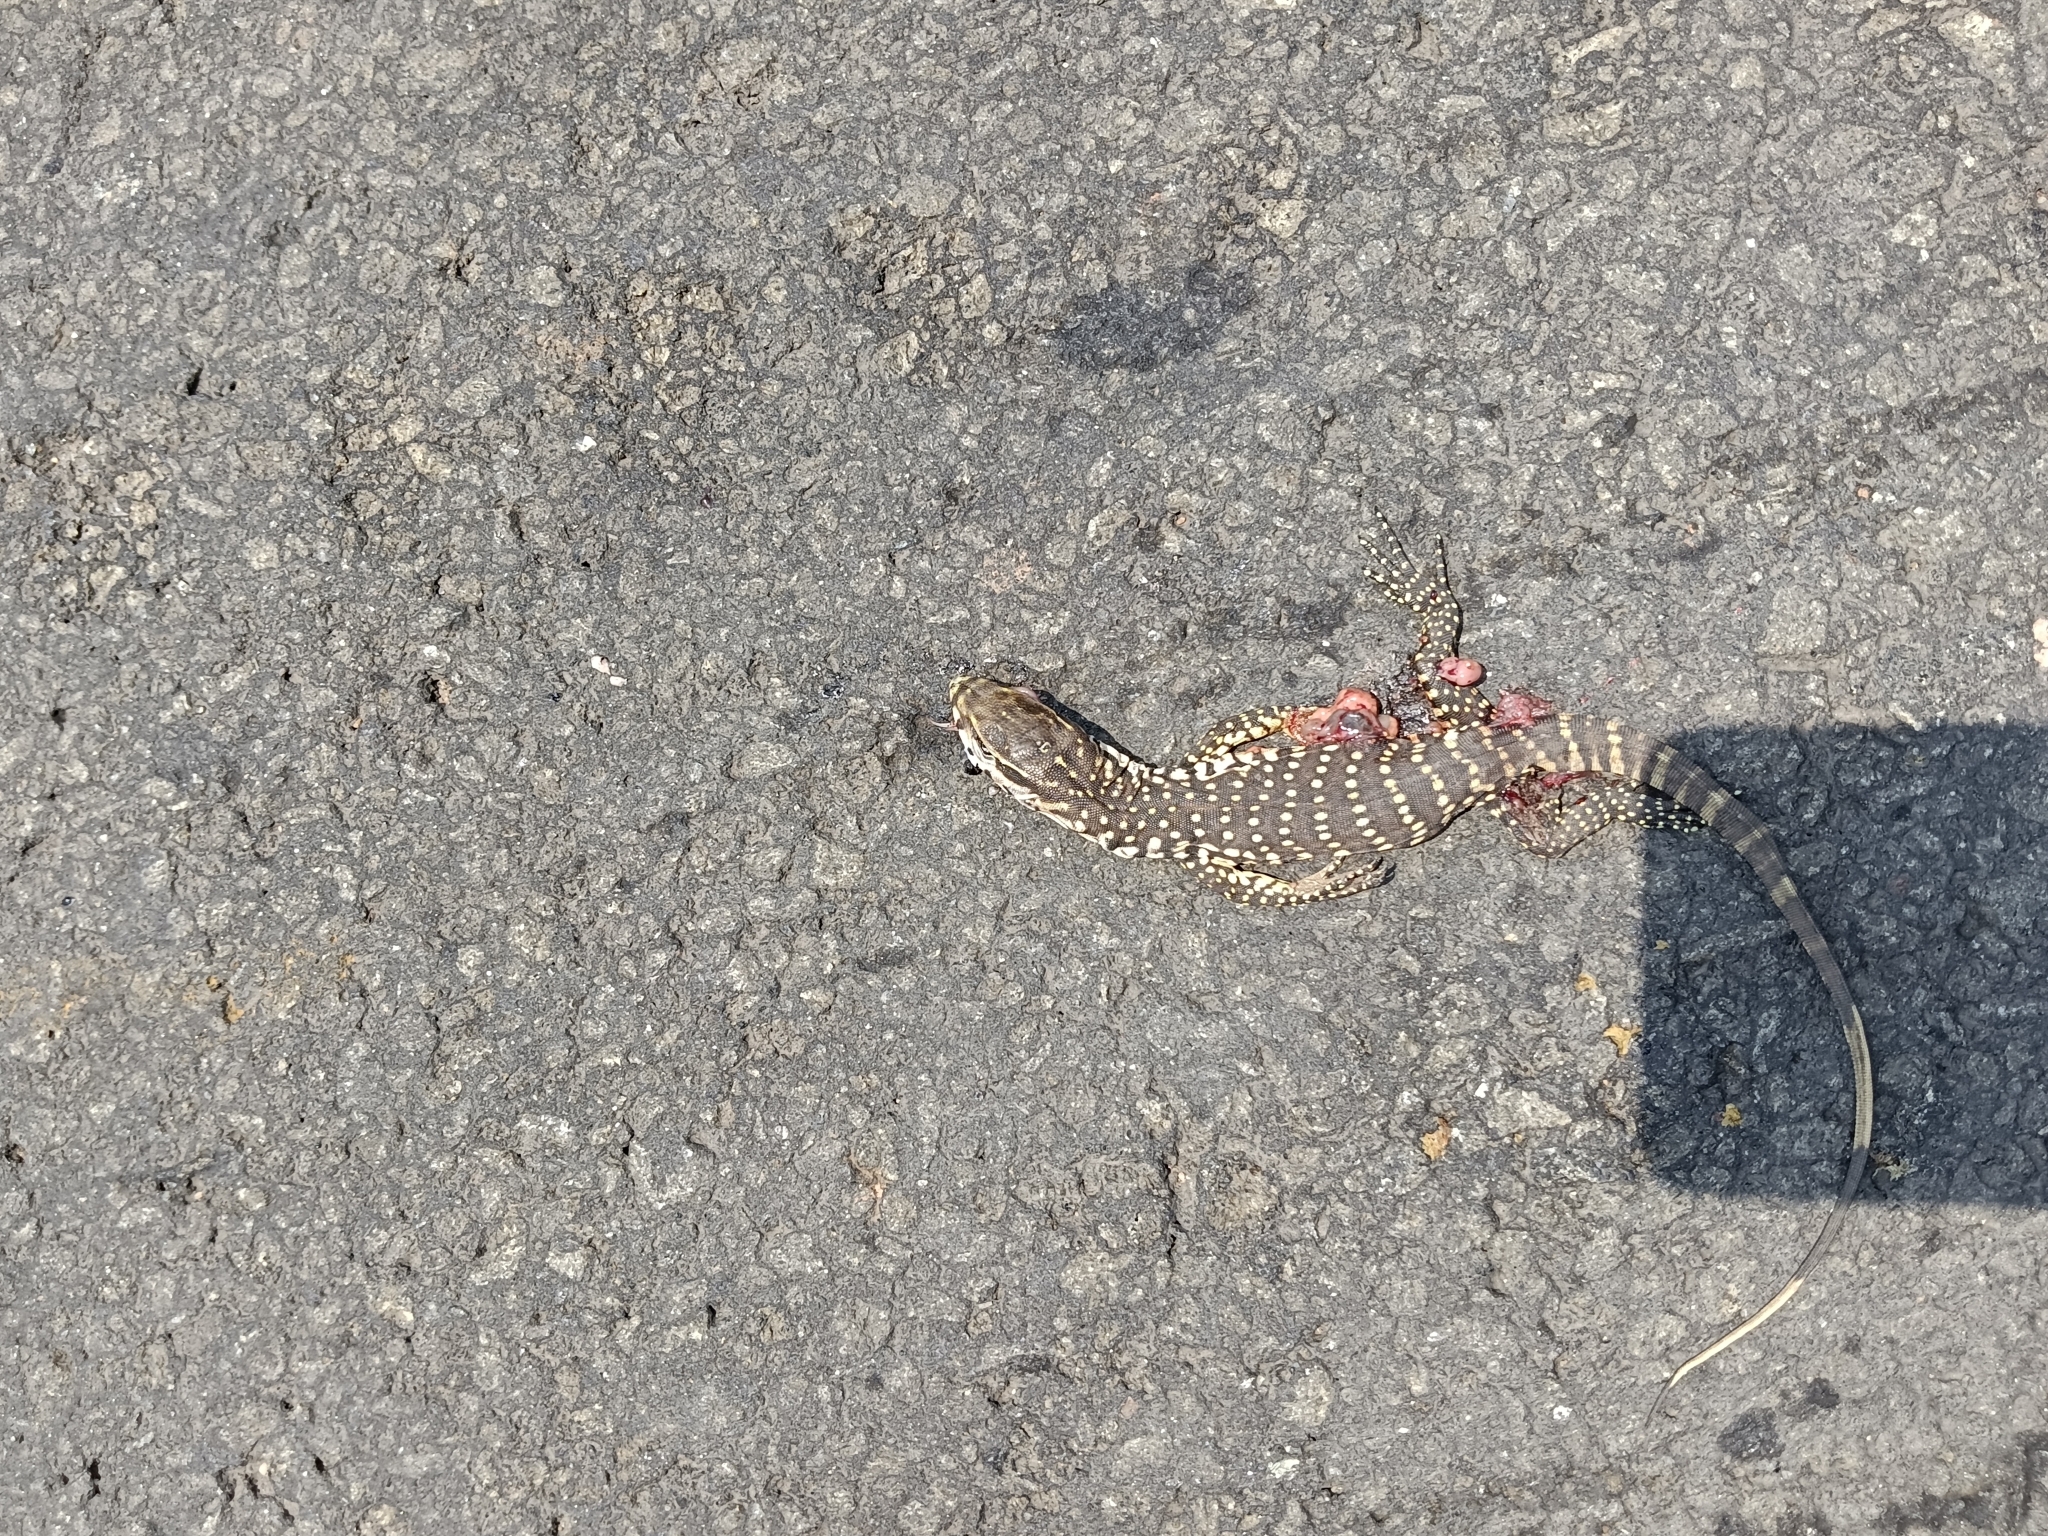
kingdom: Animalia
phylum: Chordata
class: Squamata
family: Varanidae
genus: Varanus
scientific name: Varanus bengalensis
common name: Bengal monitor
